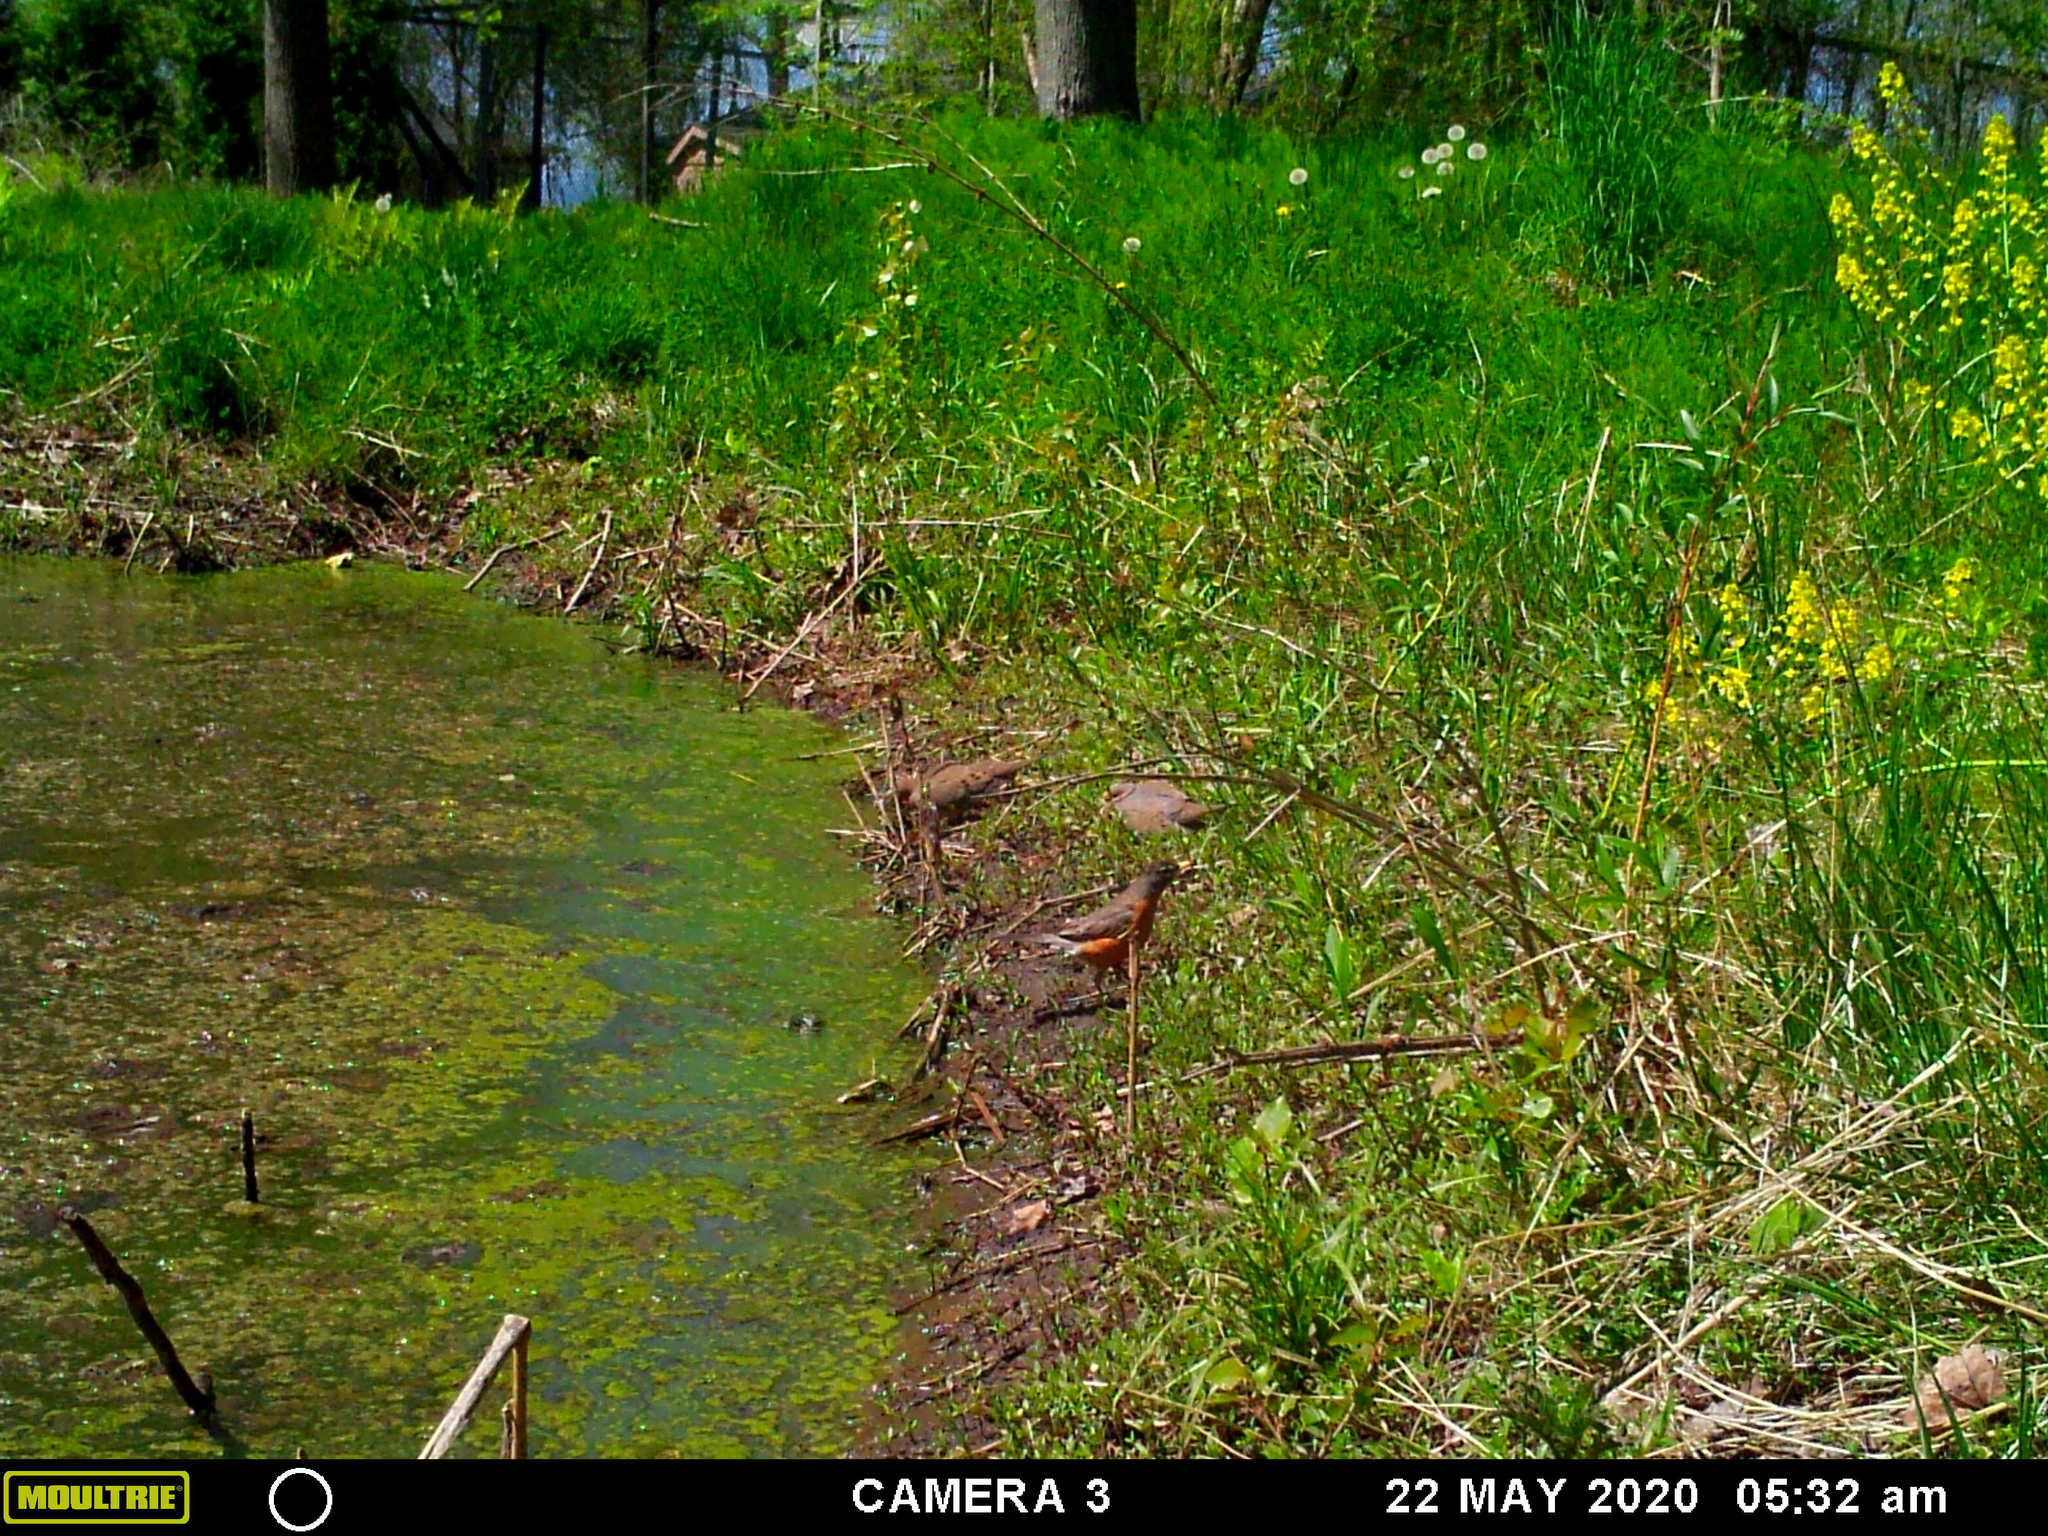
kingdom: Animalia
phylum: Chordata
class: Aves
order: Columbiformes
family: Columbidae
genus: Zenaida
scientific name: Zenaida macroura
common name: Mourning dove
